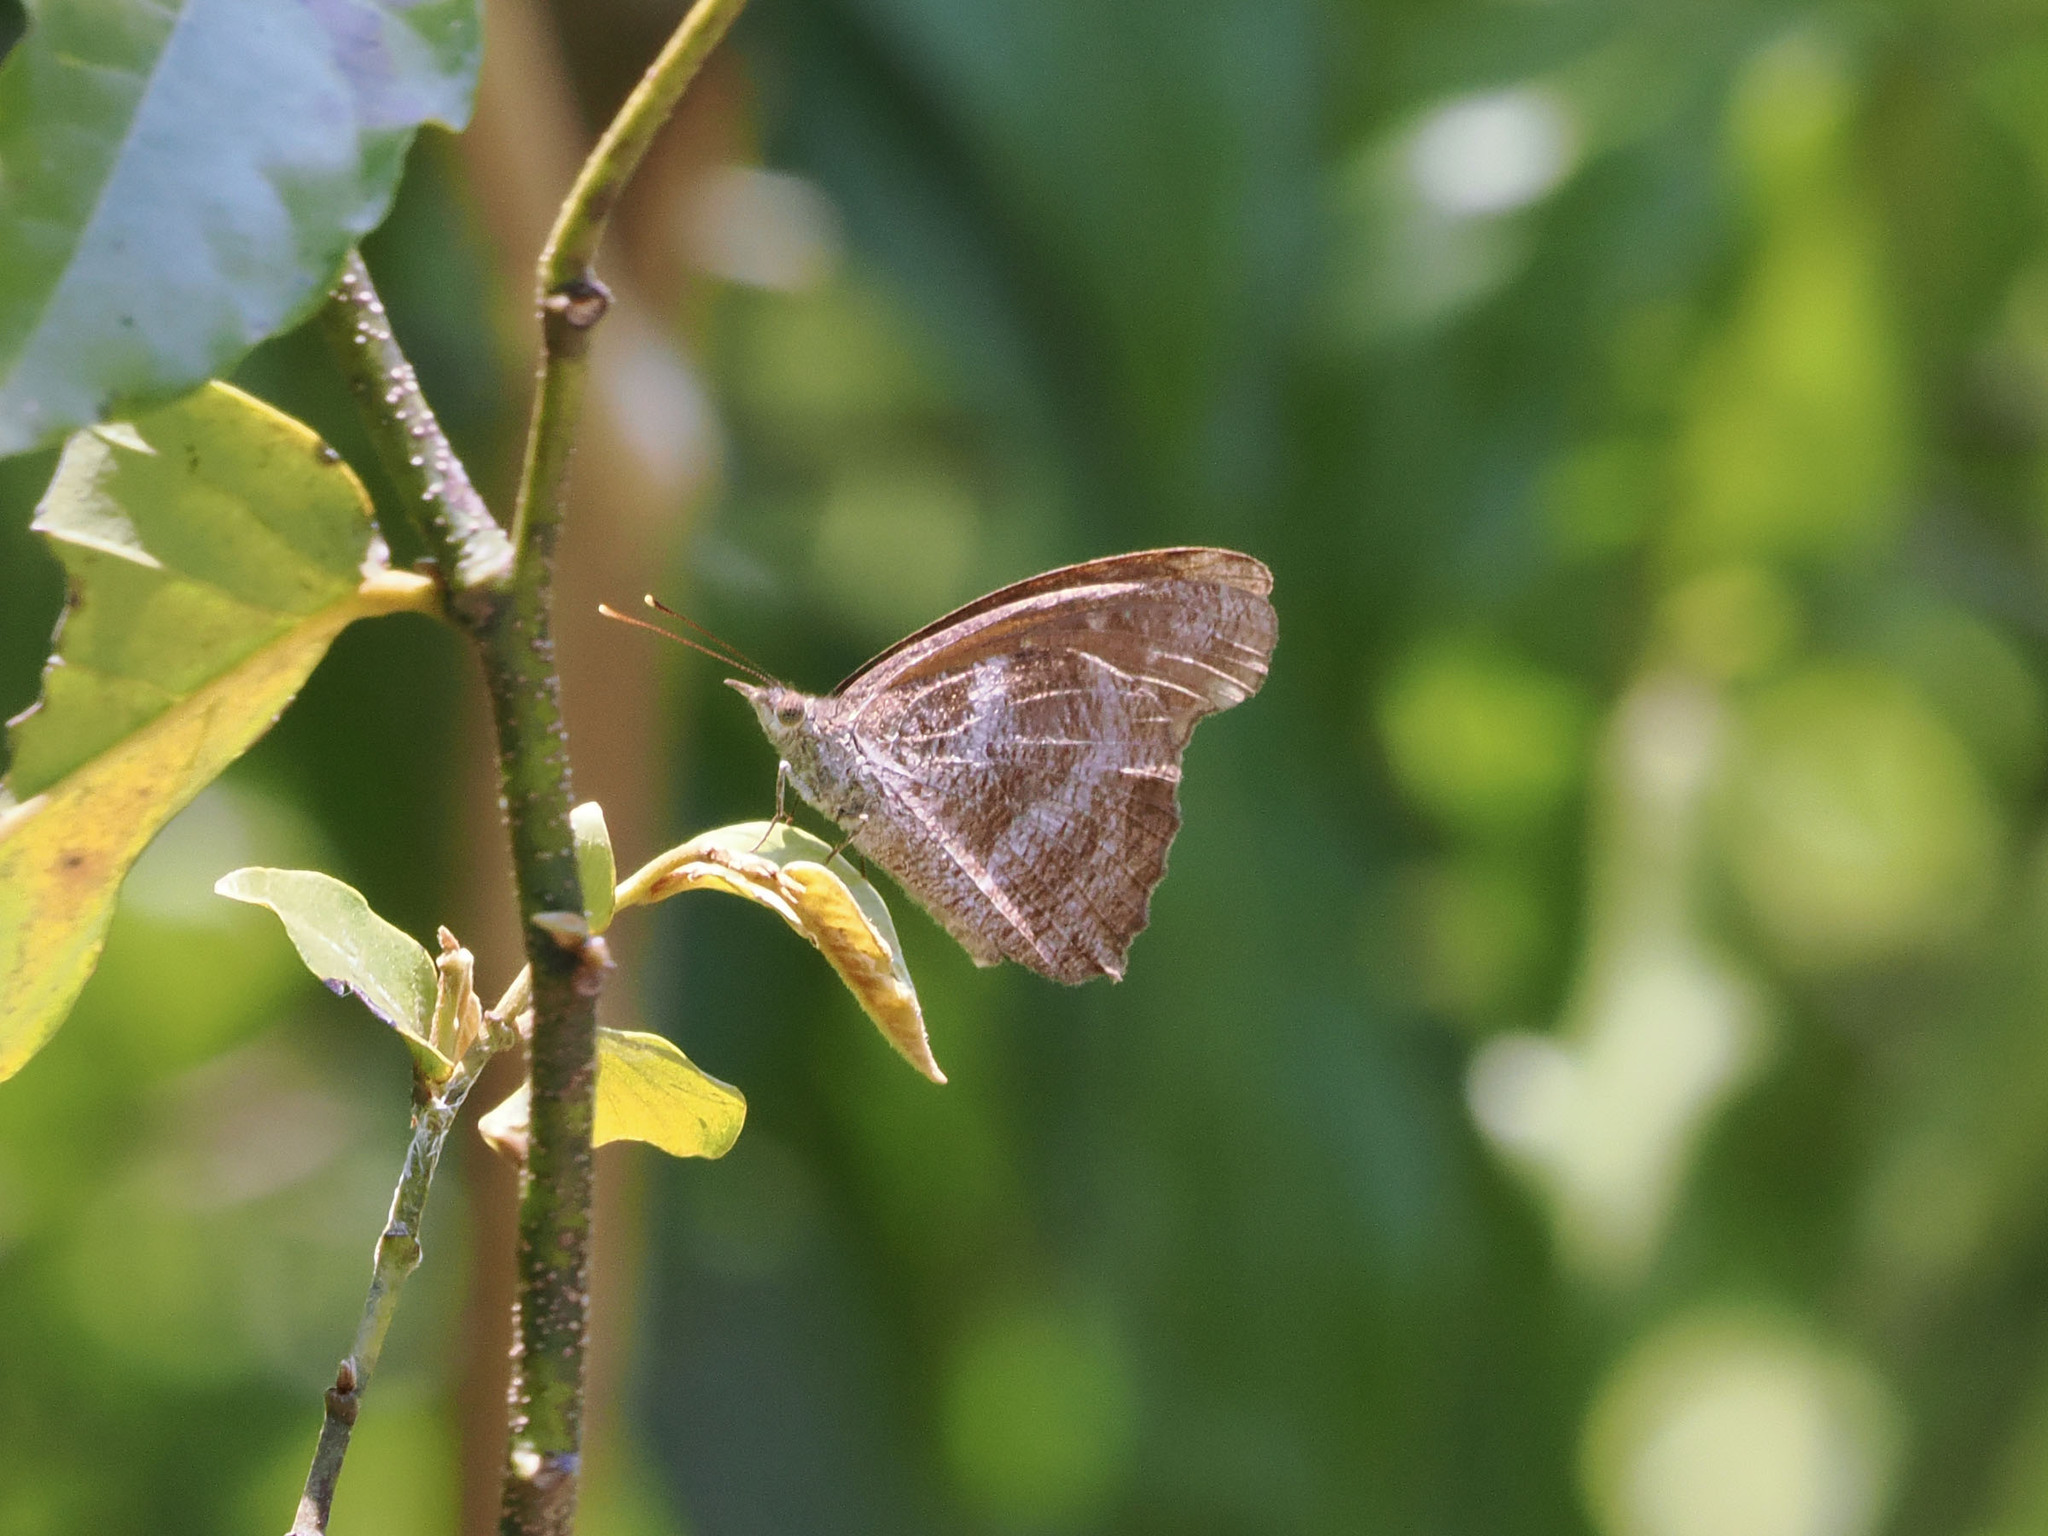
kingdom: Animalia
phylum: Arthropoda
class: Insecta
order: Lepidoptera
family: Nymphalidae
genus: Libythea
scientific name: Libythea geoffroy
